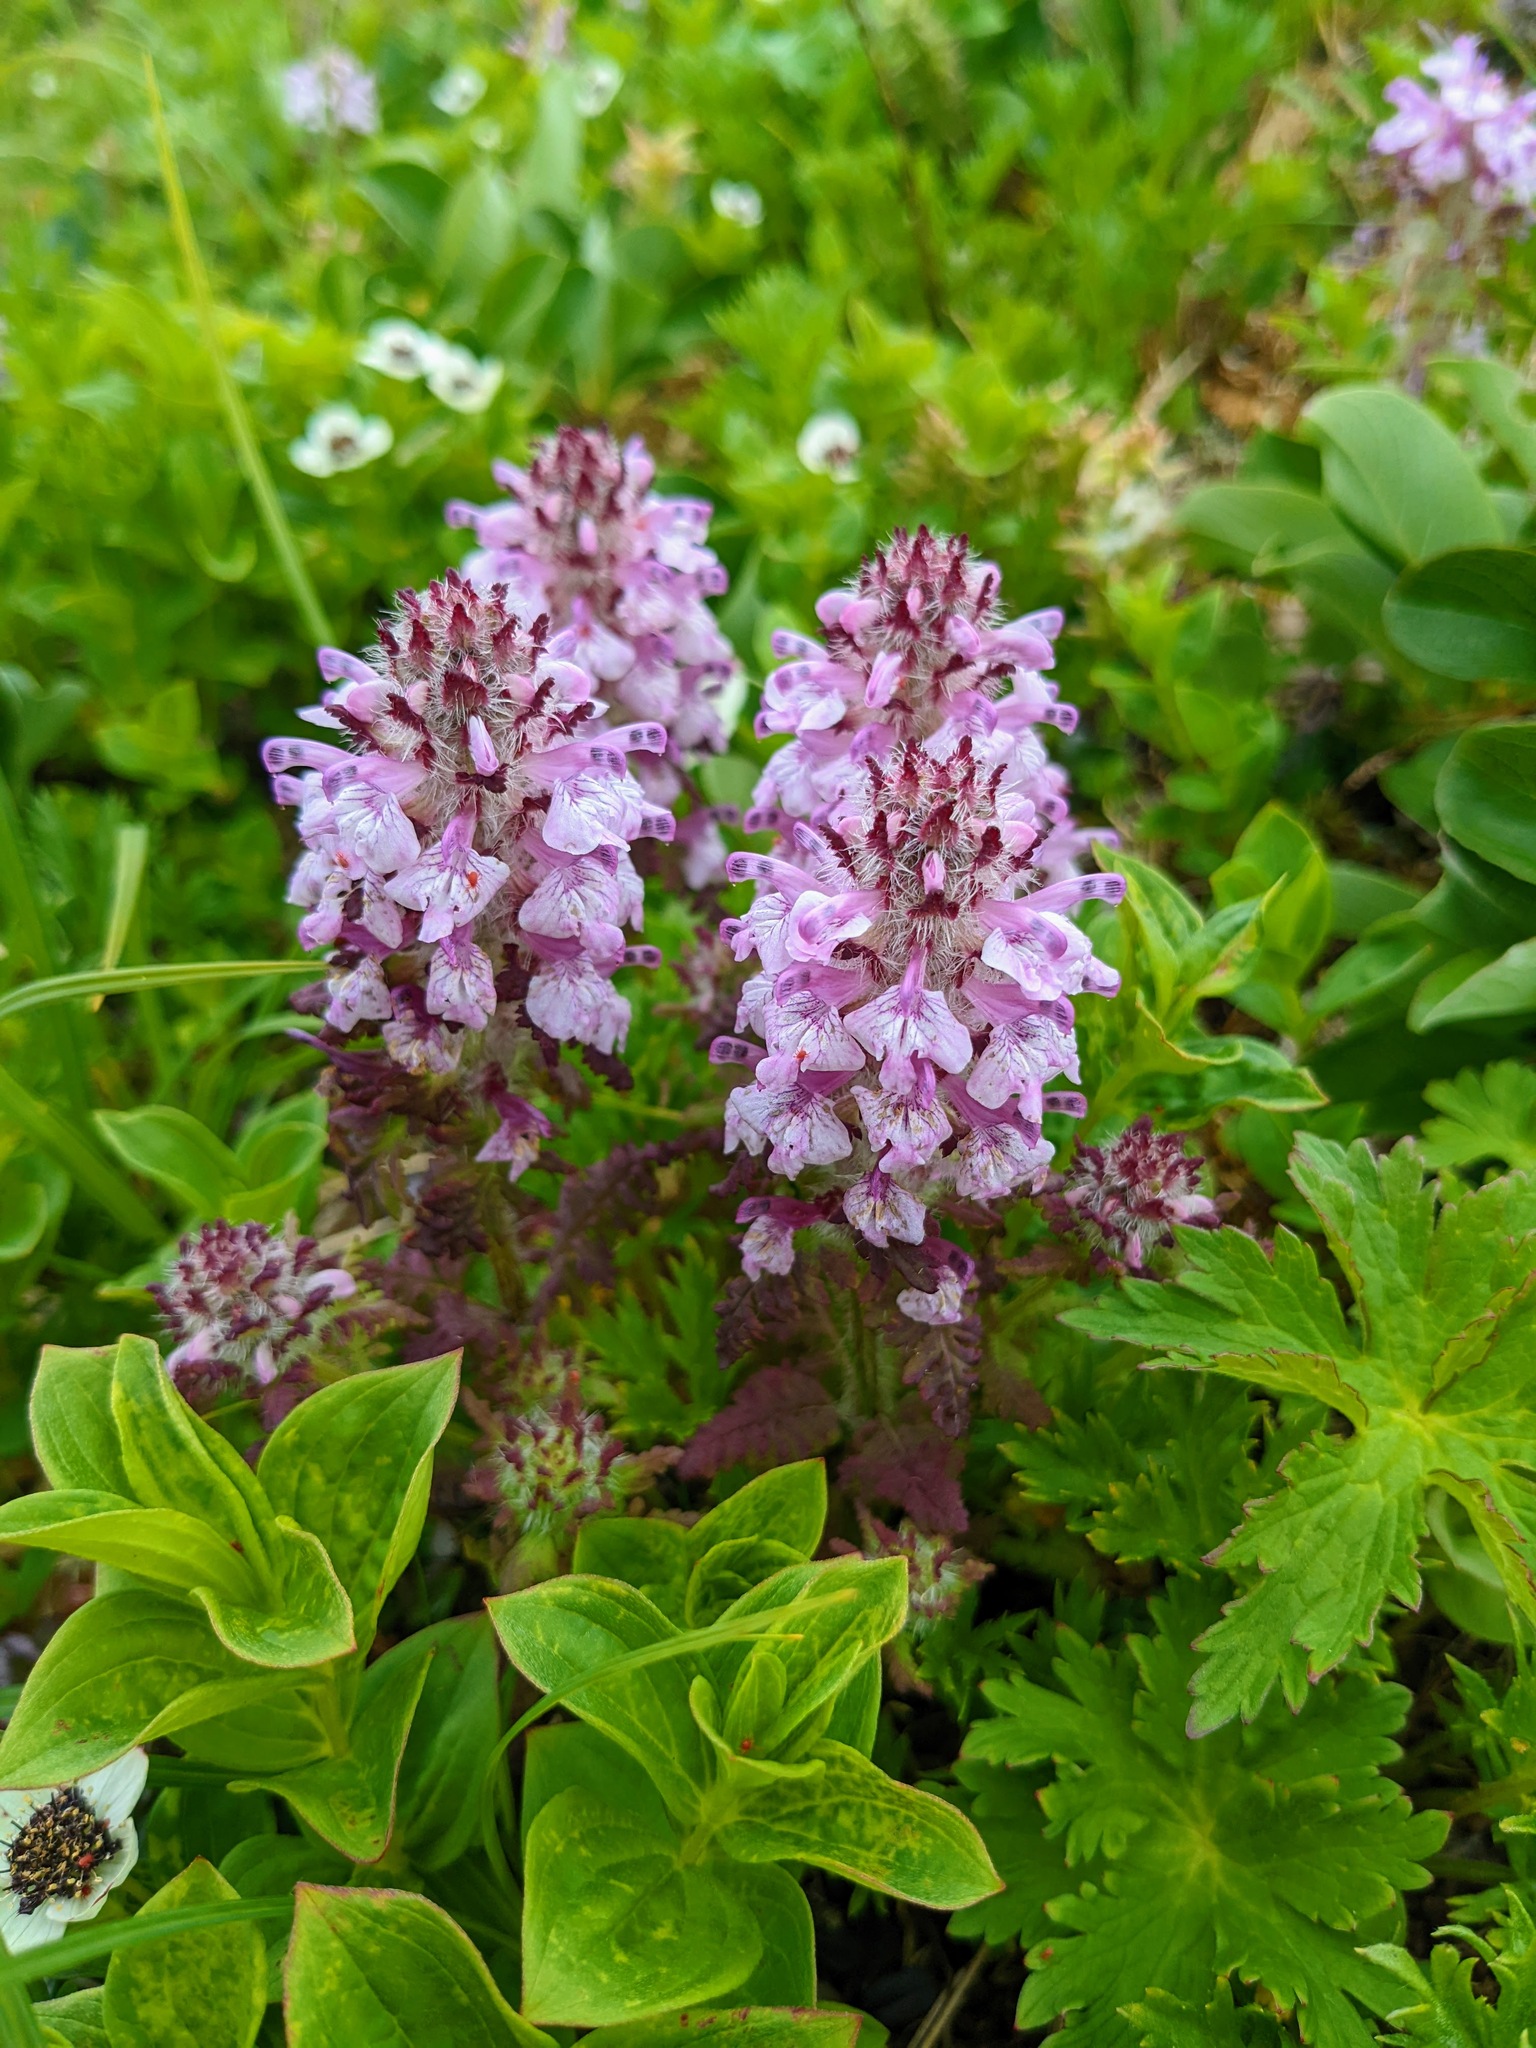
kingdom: Plantae
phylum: Tracheophyta
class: Magnoliopsida
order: Lamiales
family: Orobanchaceae
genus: Pedicularis
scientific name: Pedicularis verticillata
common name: Whorled lousewort
